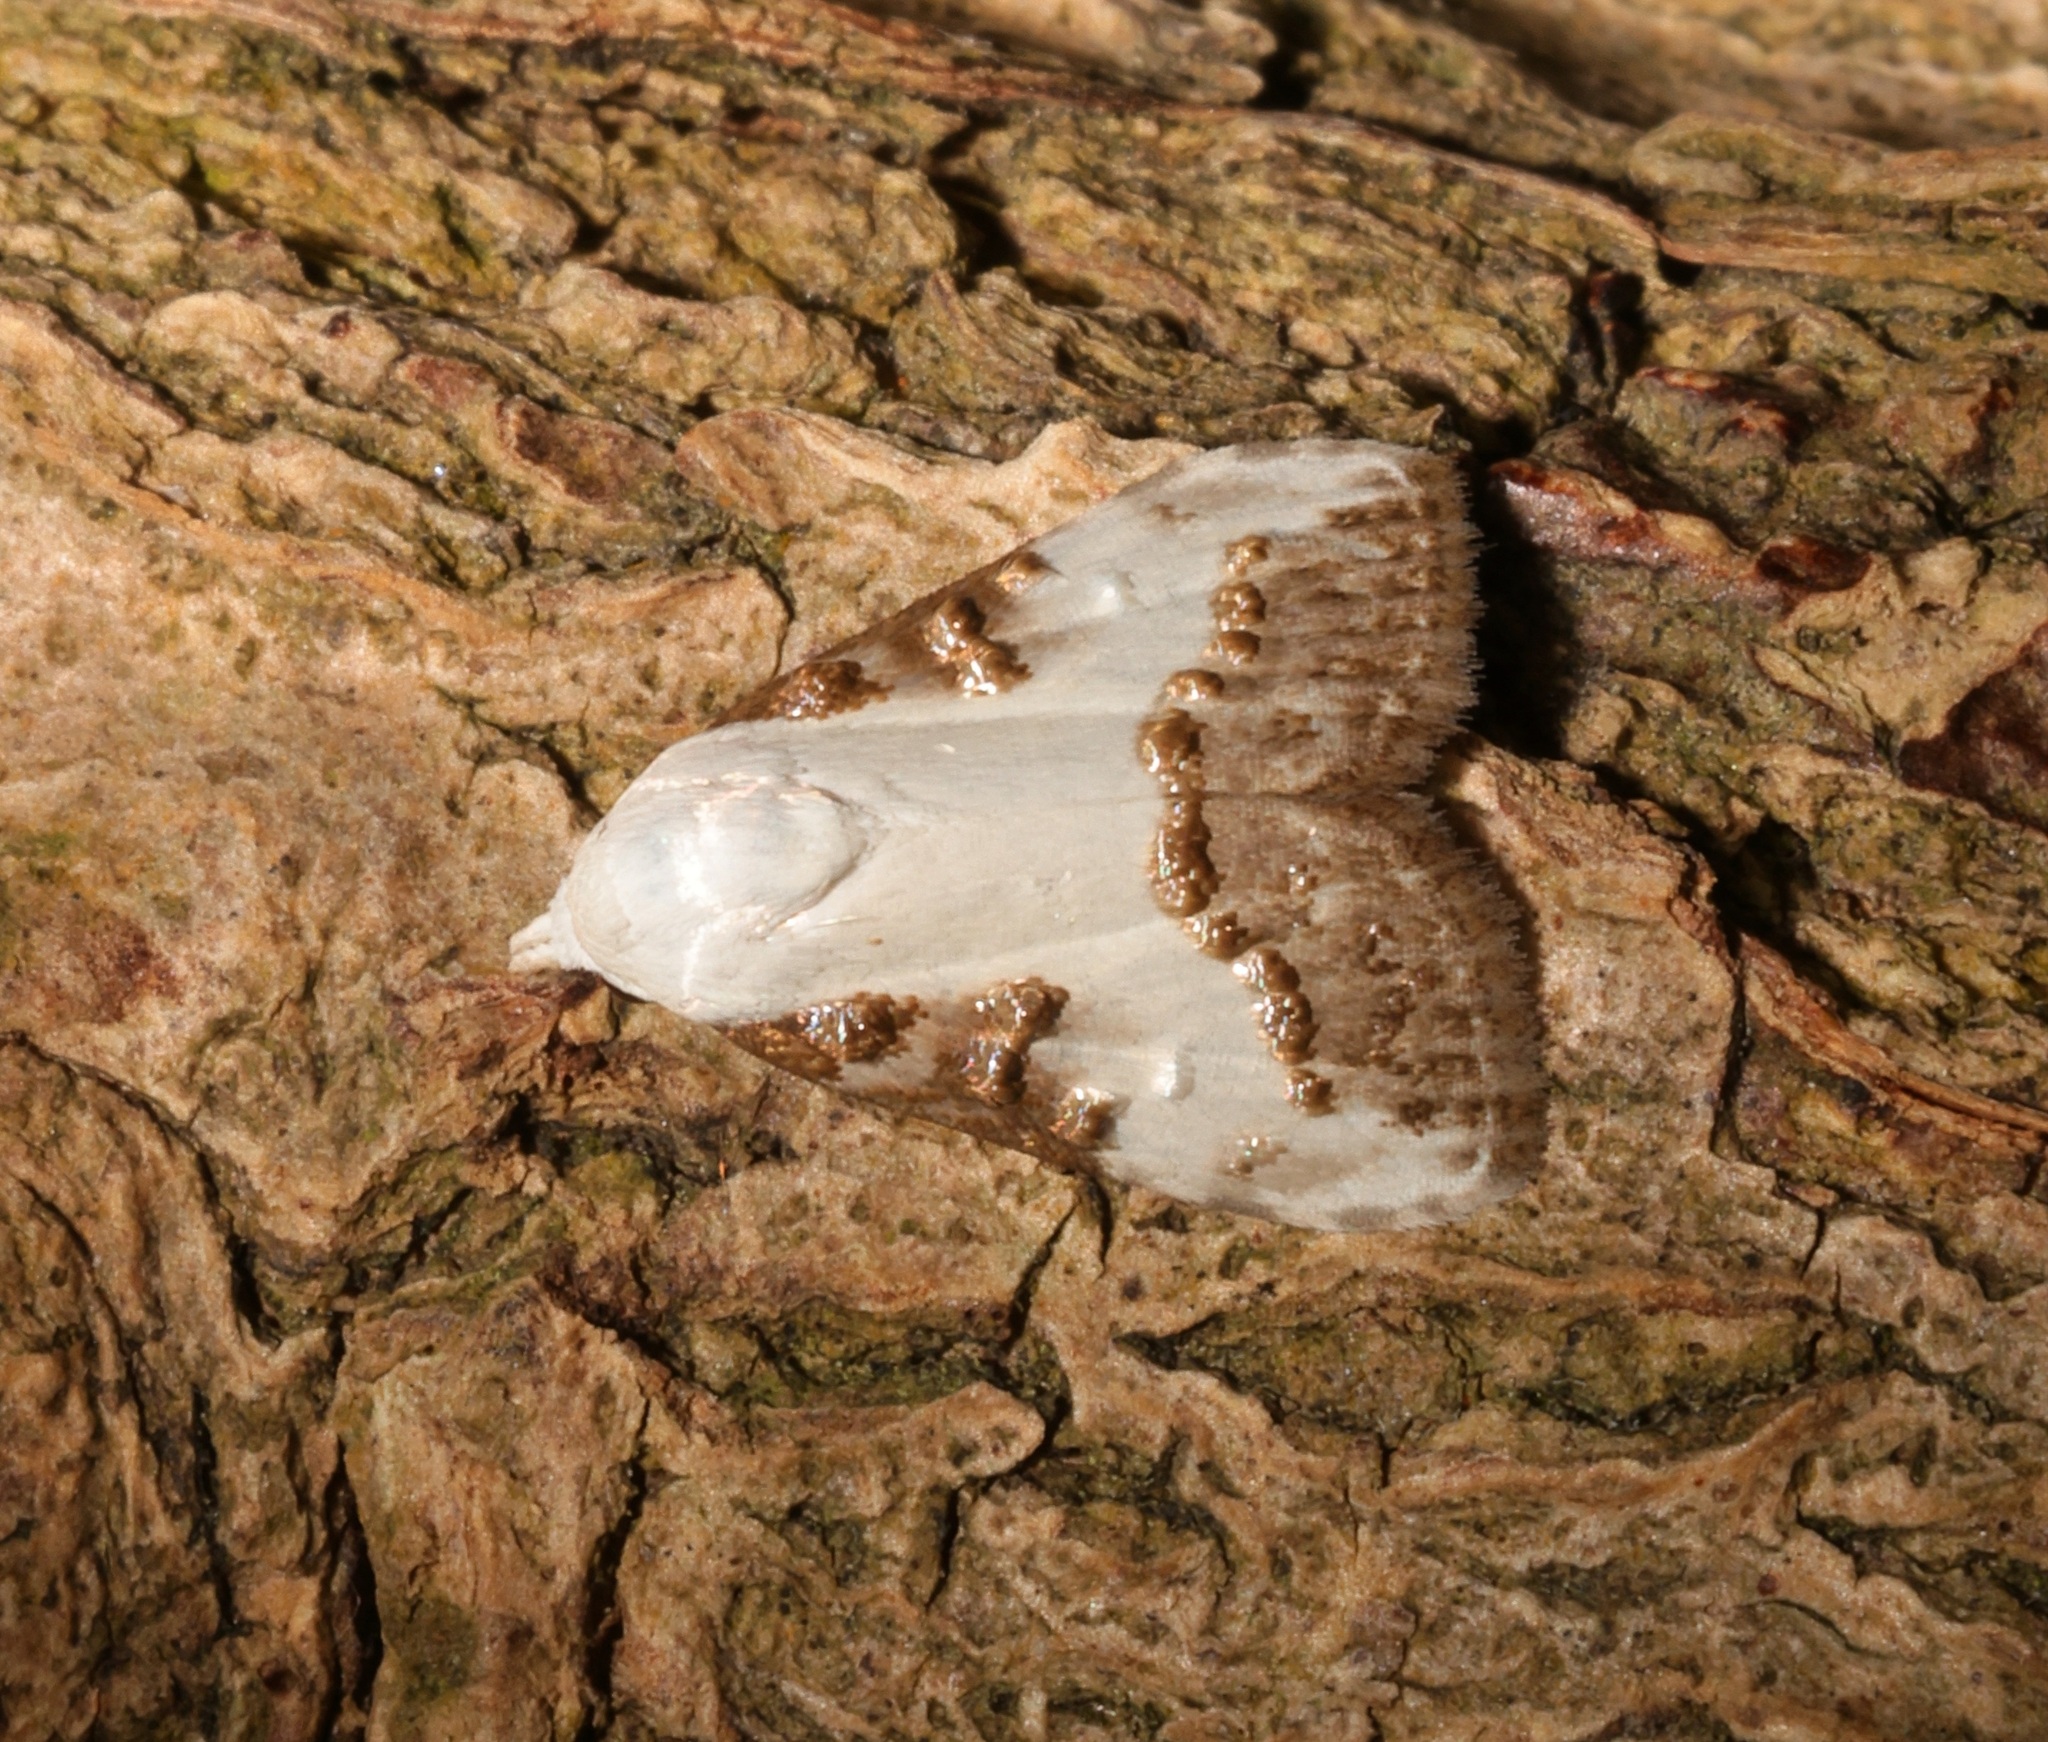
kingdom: Animalia
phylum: Arthropoda
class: Insecta
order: Lepidoptera
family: Nolidae
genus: Aeneanola
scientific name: Aeneanola acontioides
